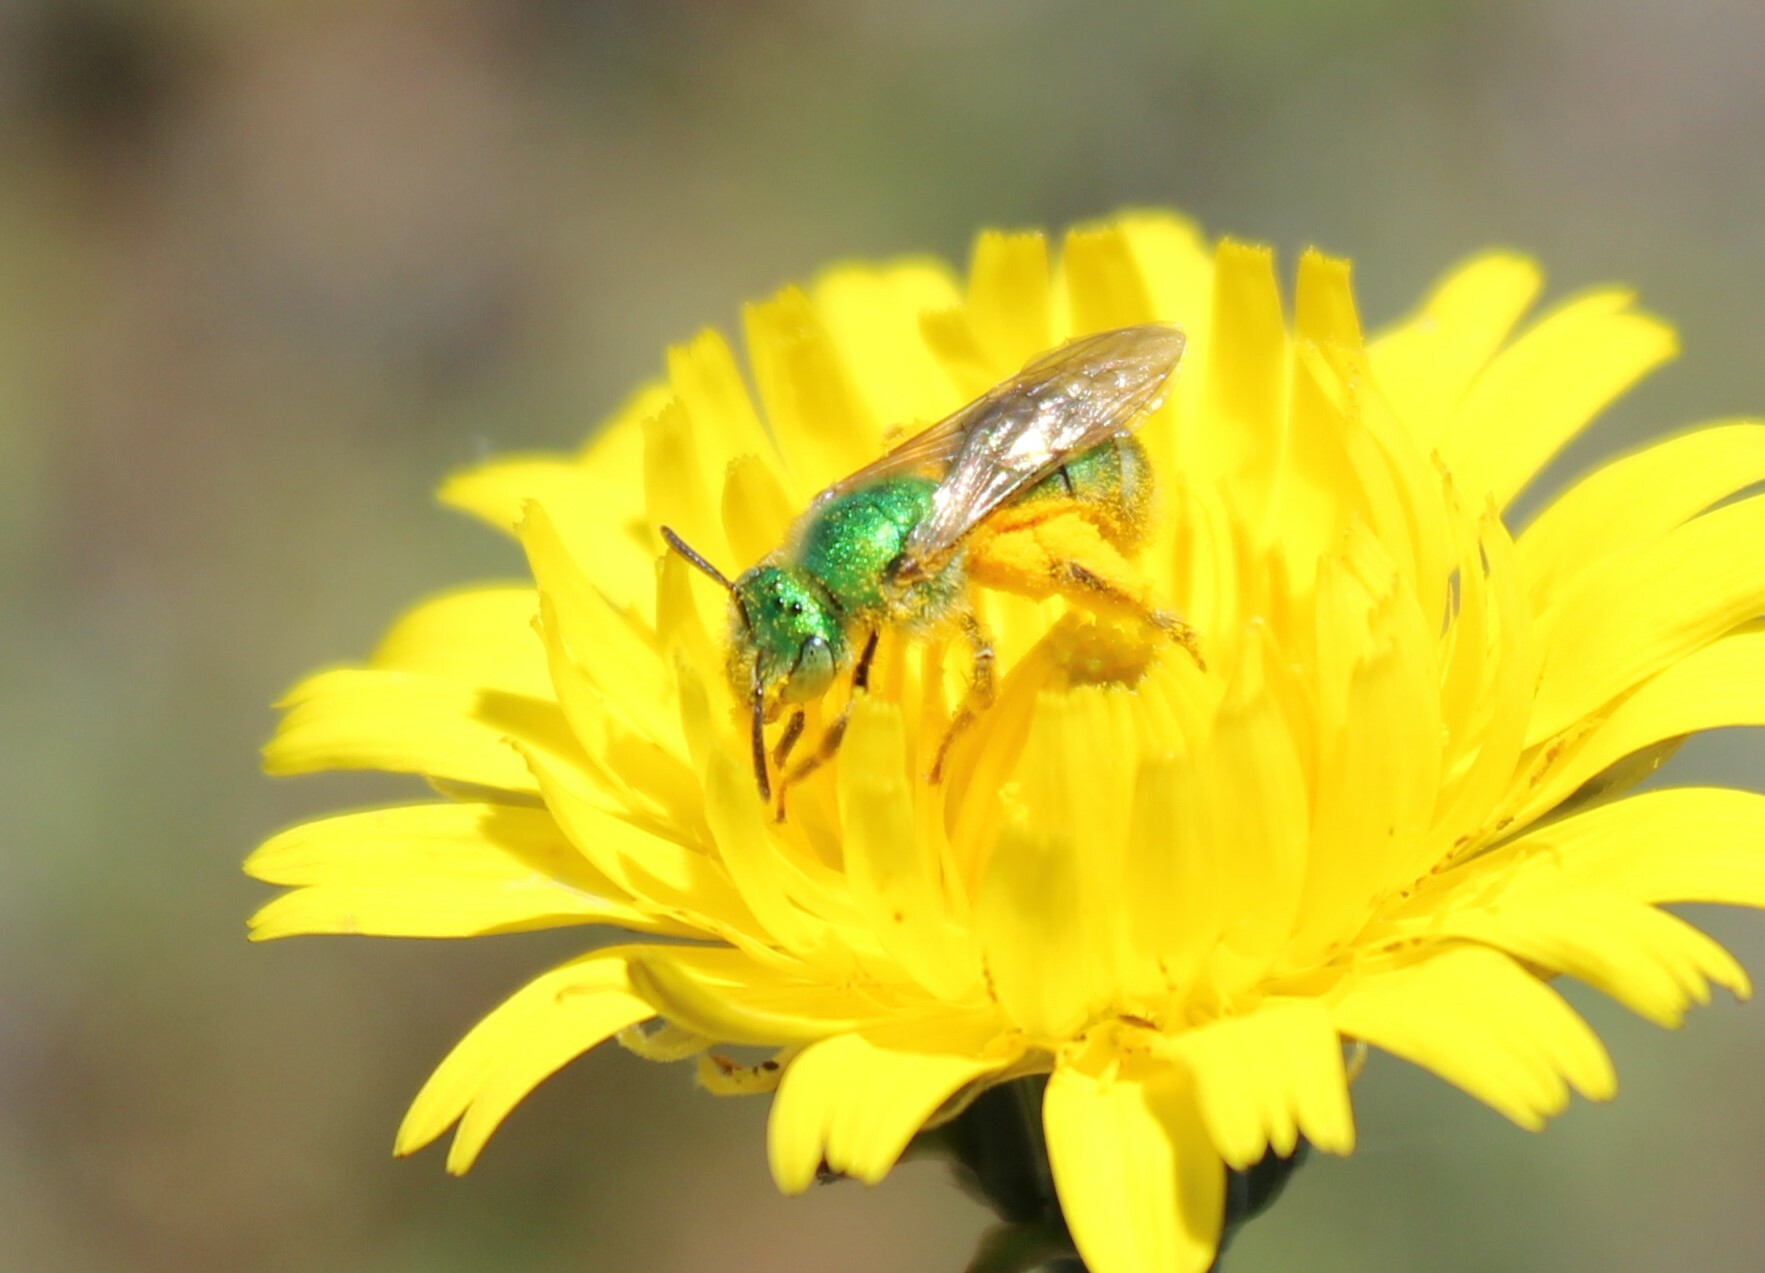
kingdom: Animalia
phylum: Arthropoda
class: Insecta
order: Hymenoptera
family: Halictidae
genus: Agapostemon
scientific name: Agapostemon texanus
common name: Texas striped sweat bee
